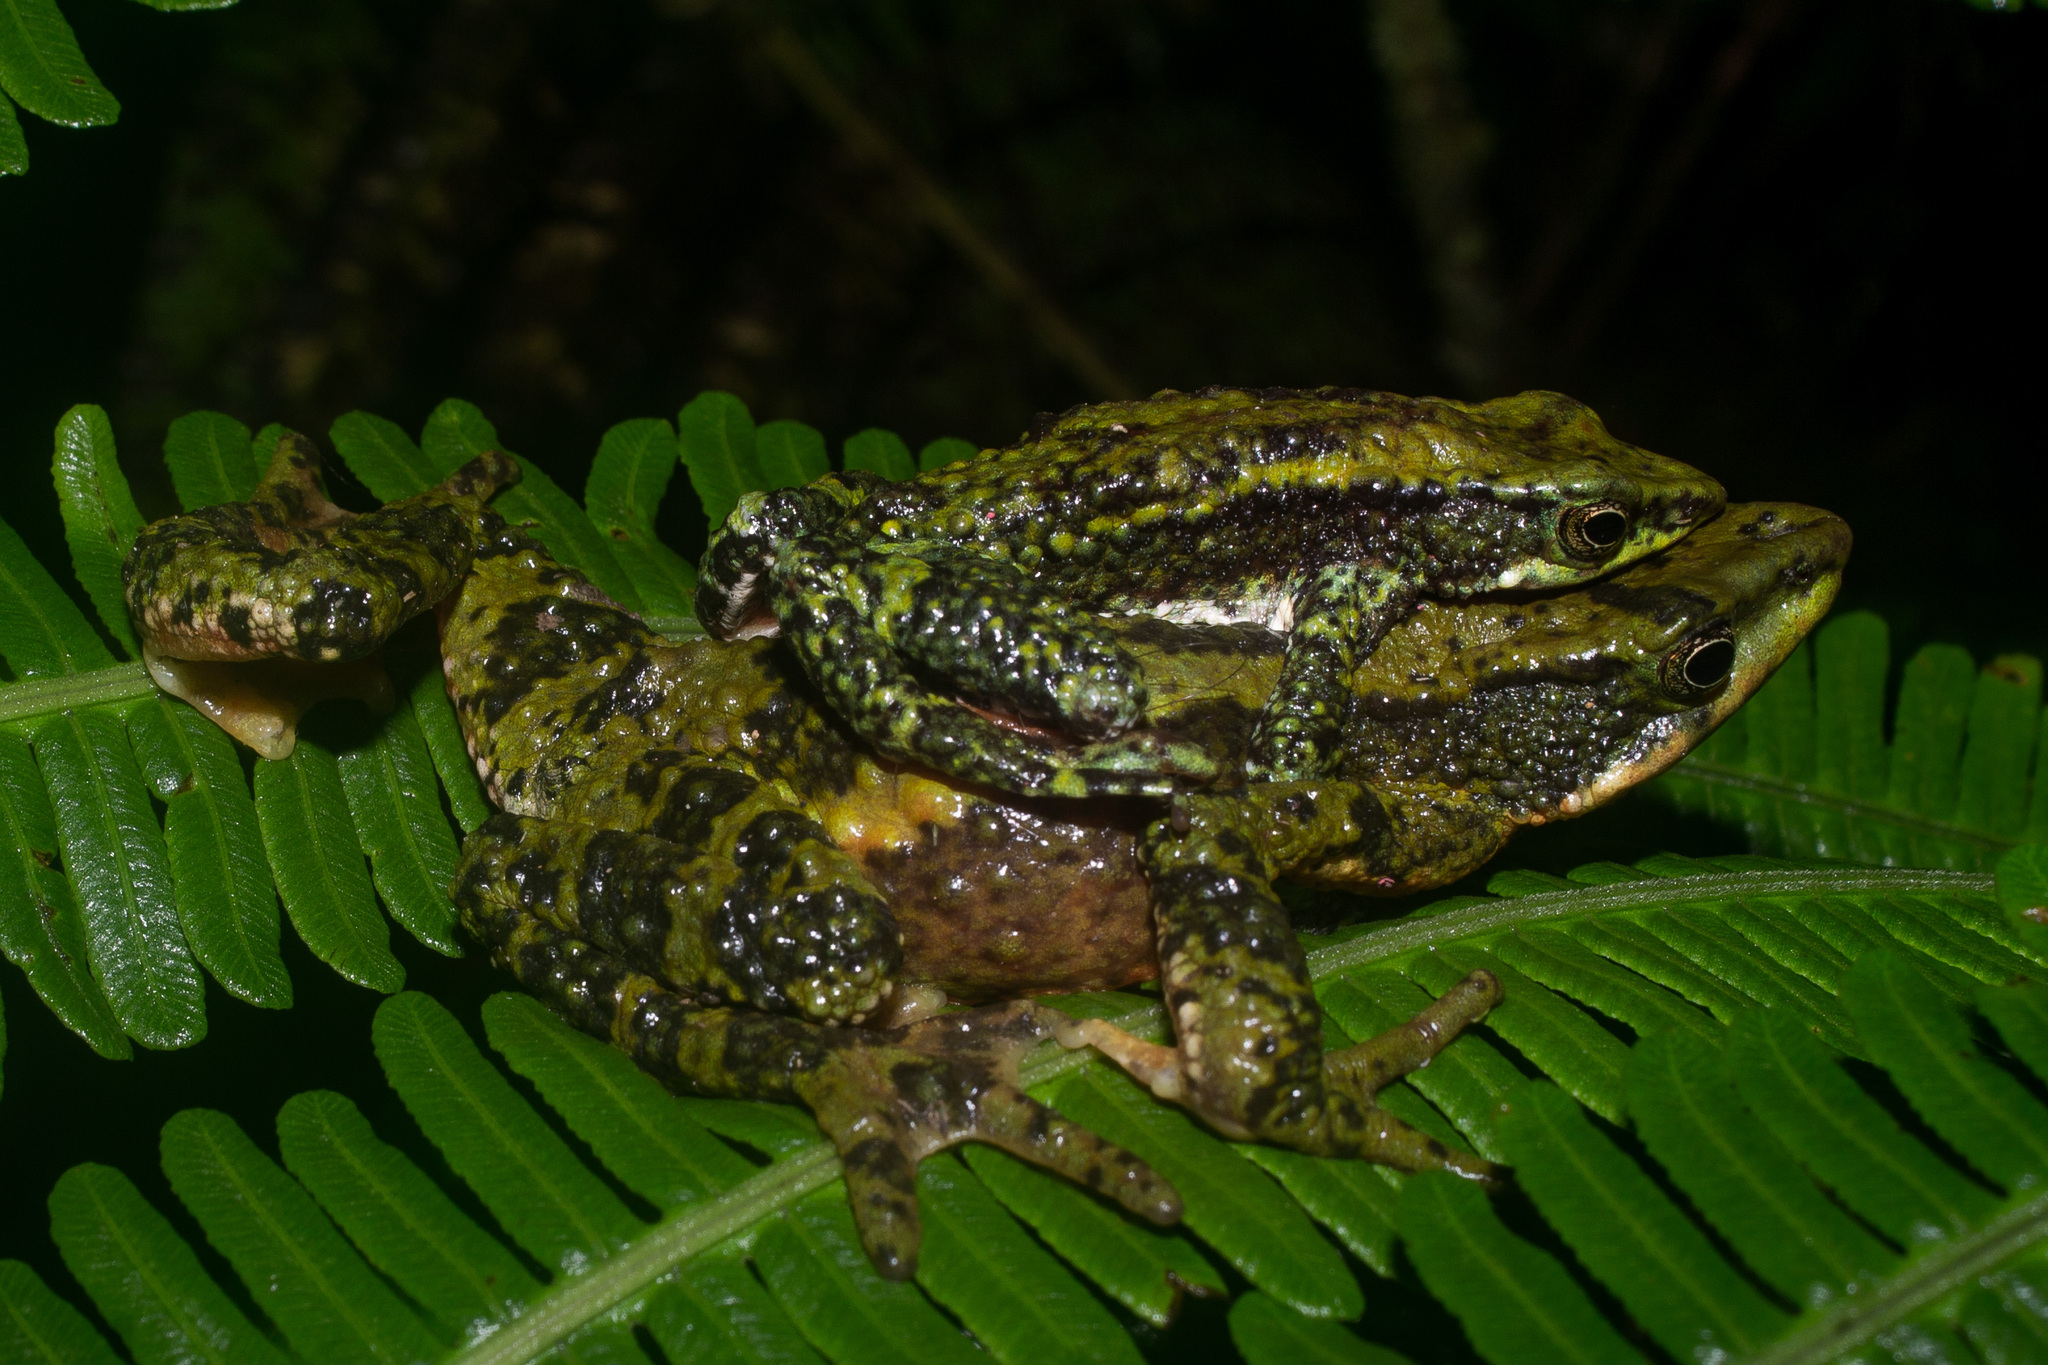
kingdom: Animalia
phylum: Chordata
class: Amphibia
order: Anura
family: Bufonidae
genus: Atelopus
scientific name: Atelopus laetissimus
